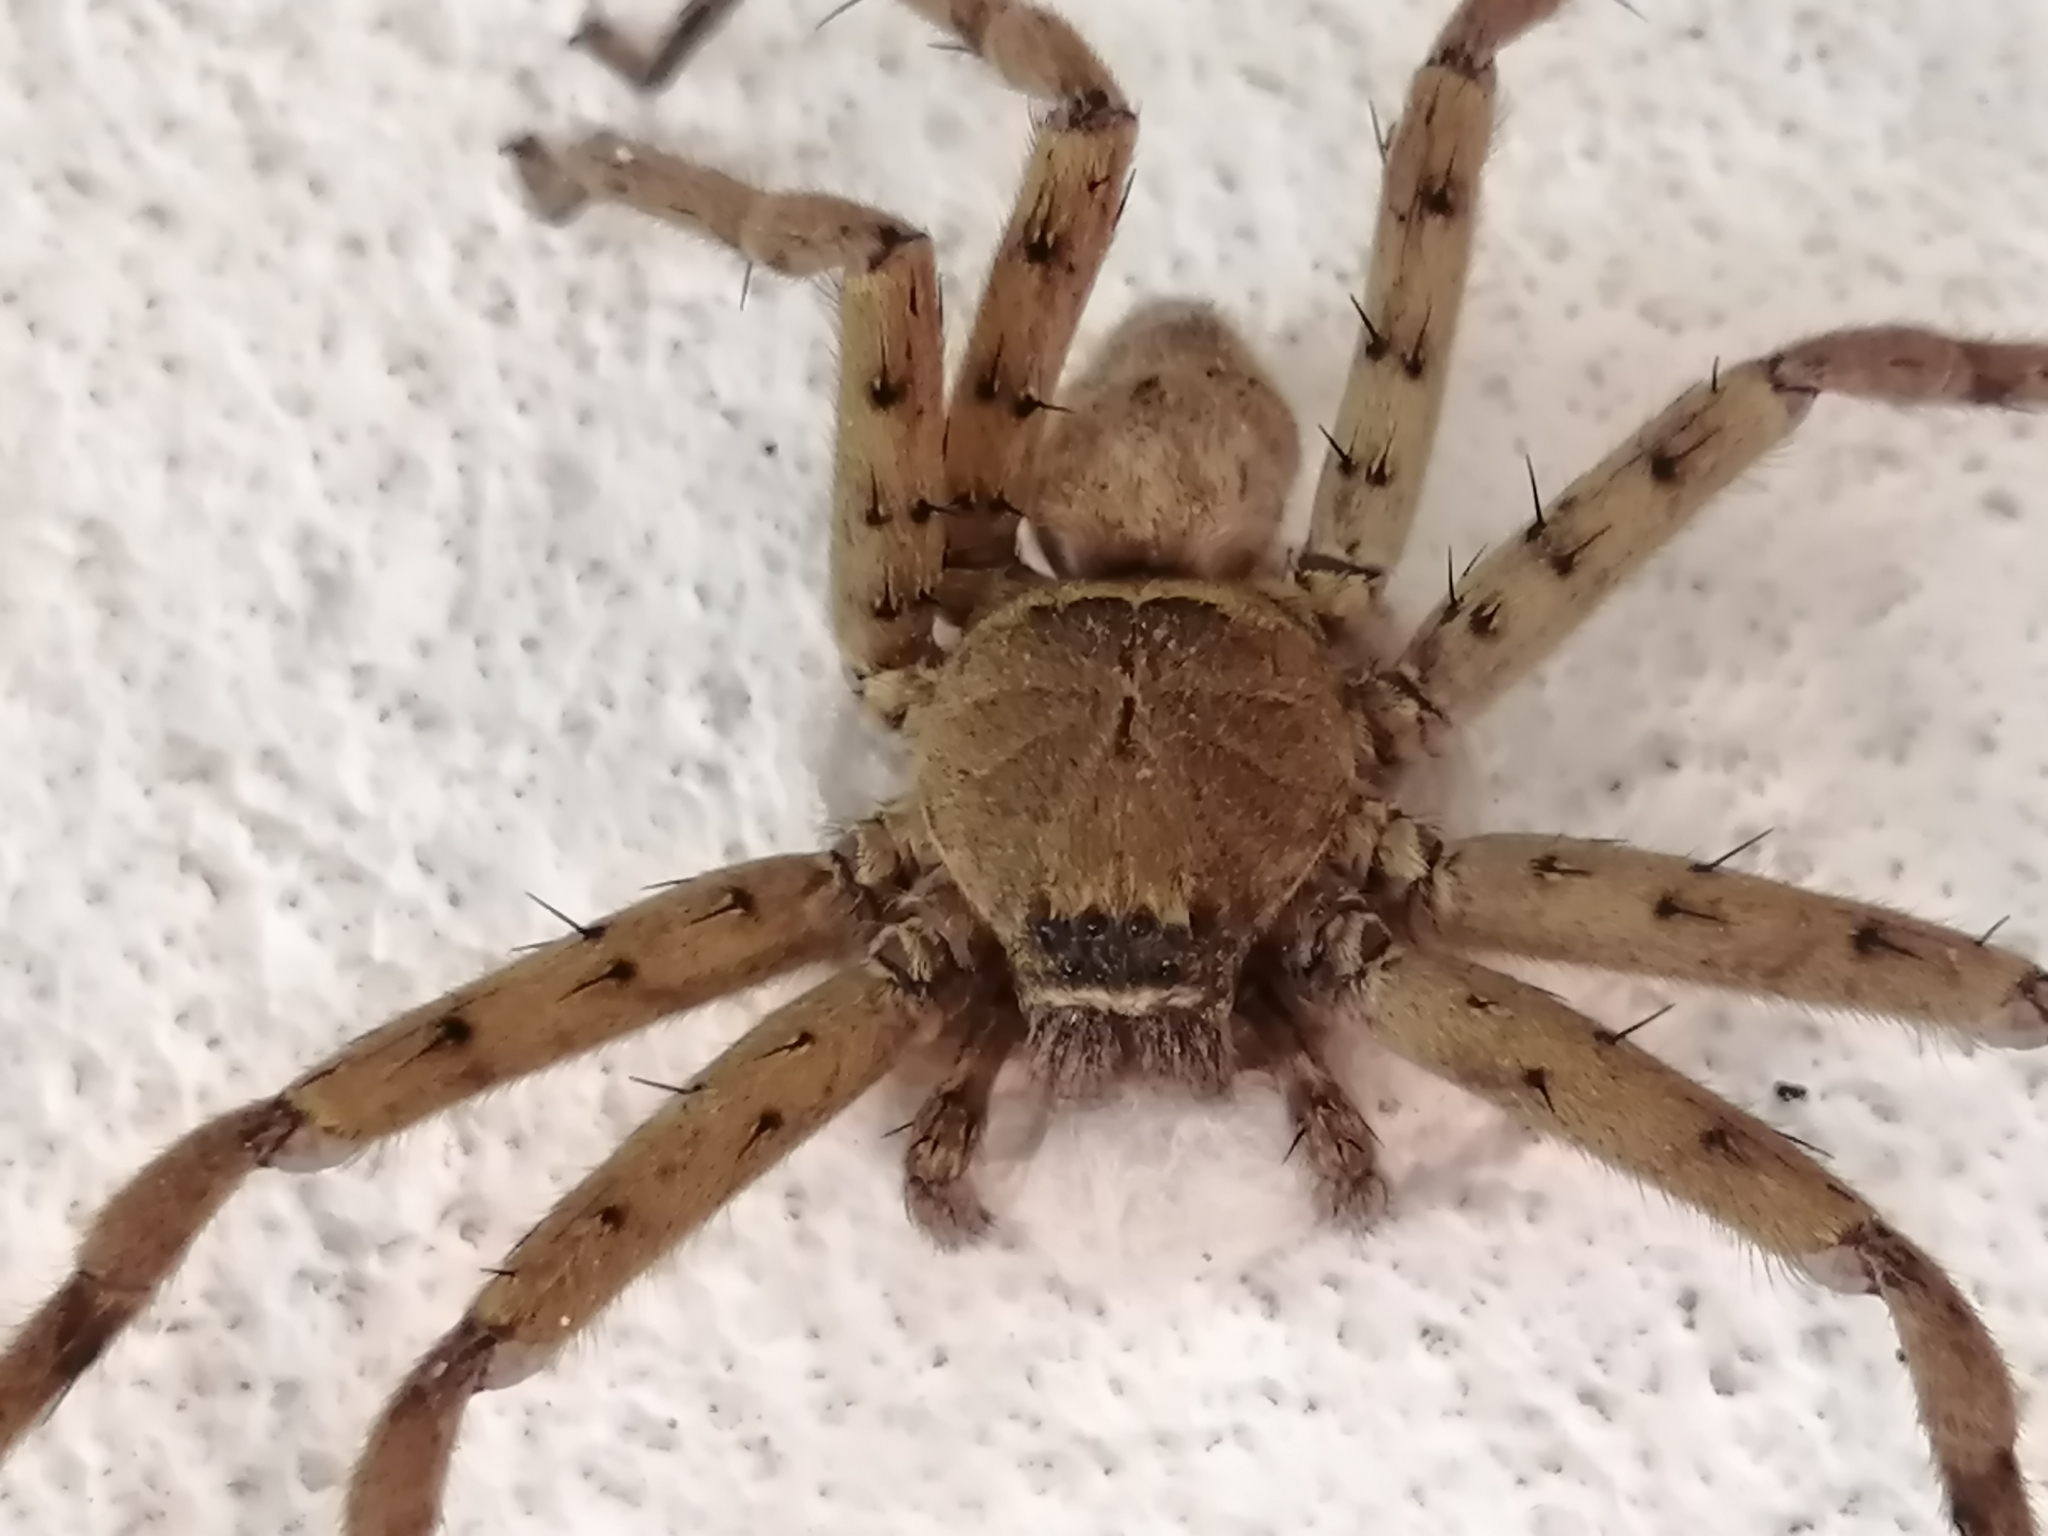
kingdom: Animalia
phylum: Arthropoda
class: Arachnida
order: Araneae
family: Sparassidae
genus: Heteropoda
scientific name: Heteropoda venatoria
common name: Huntsman spider
